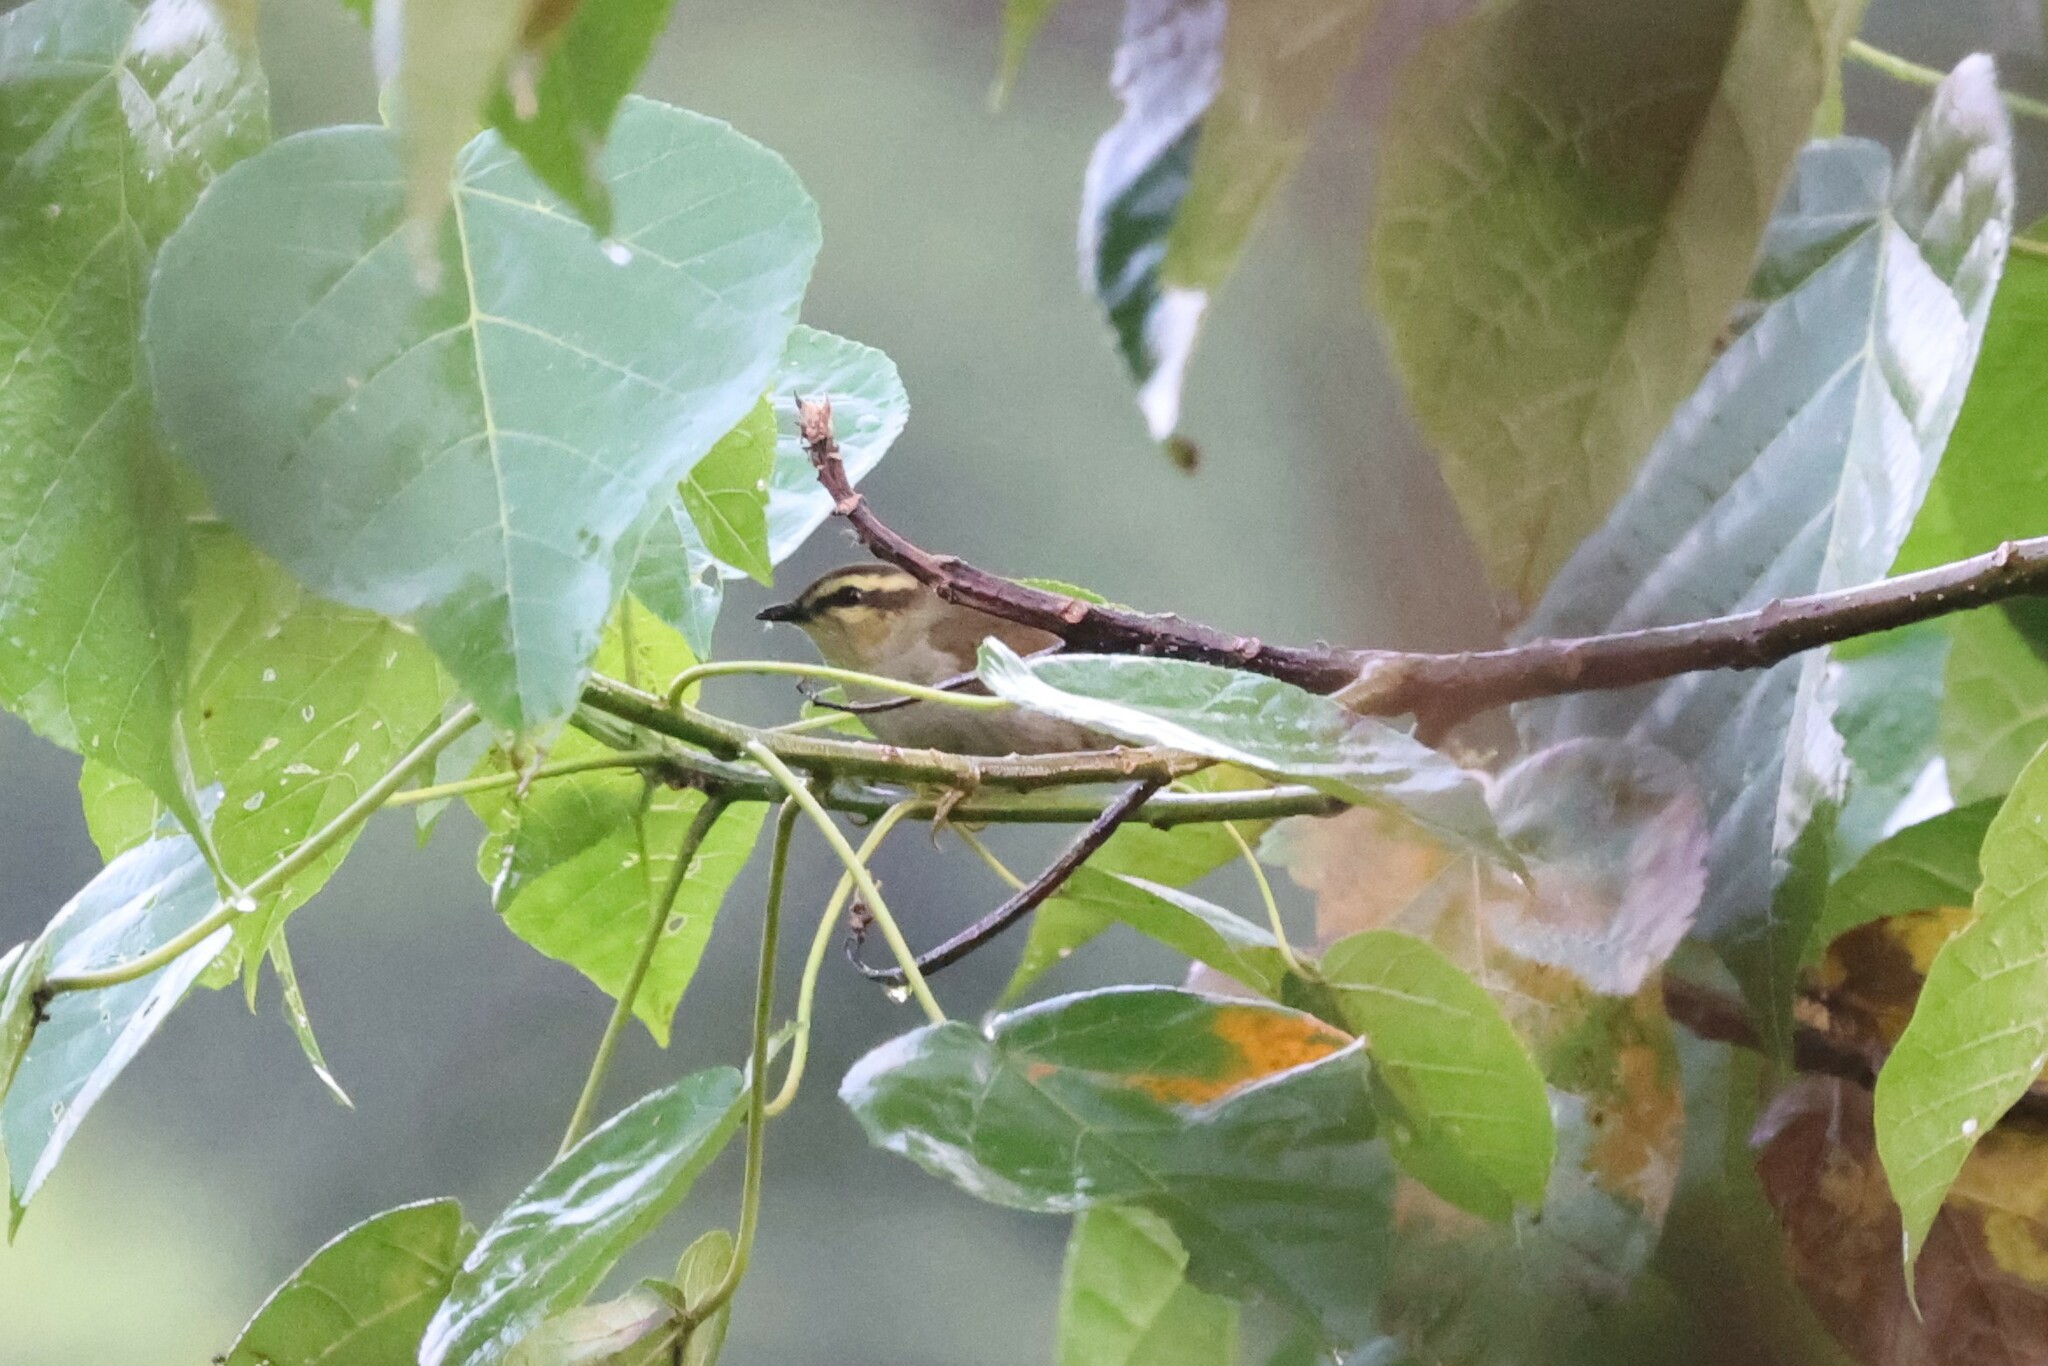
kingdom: Animalia
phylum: Chordata
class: Aves
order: Passeriformes
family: Cettiidae
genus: Hylia
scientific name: Hylia prasina
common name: Green hylia
